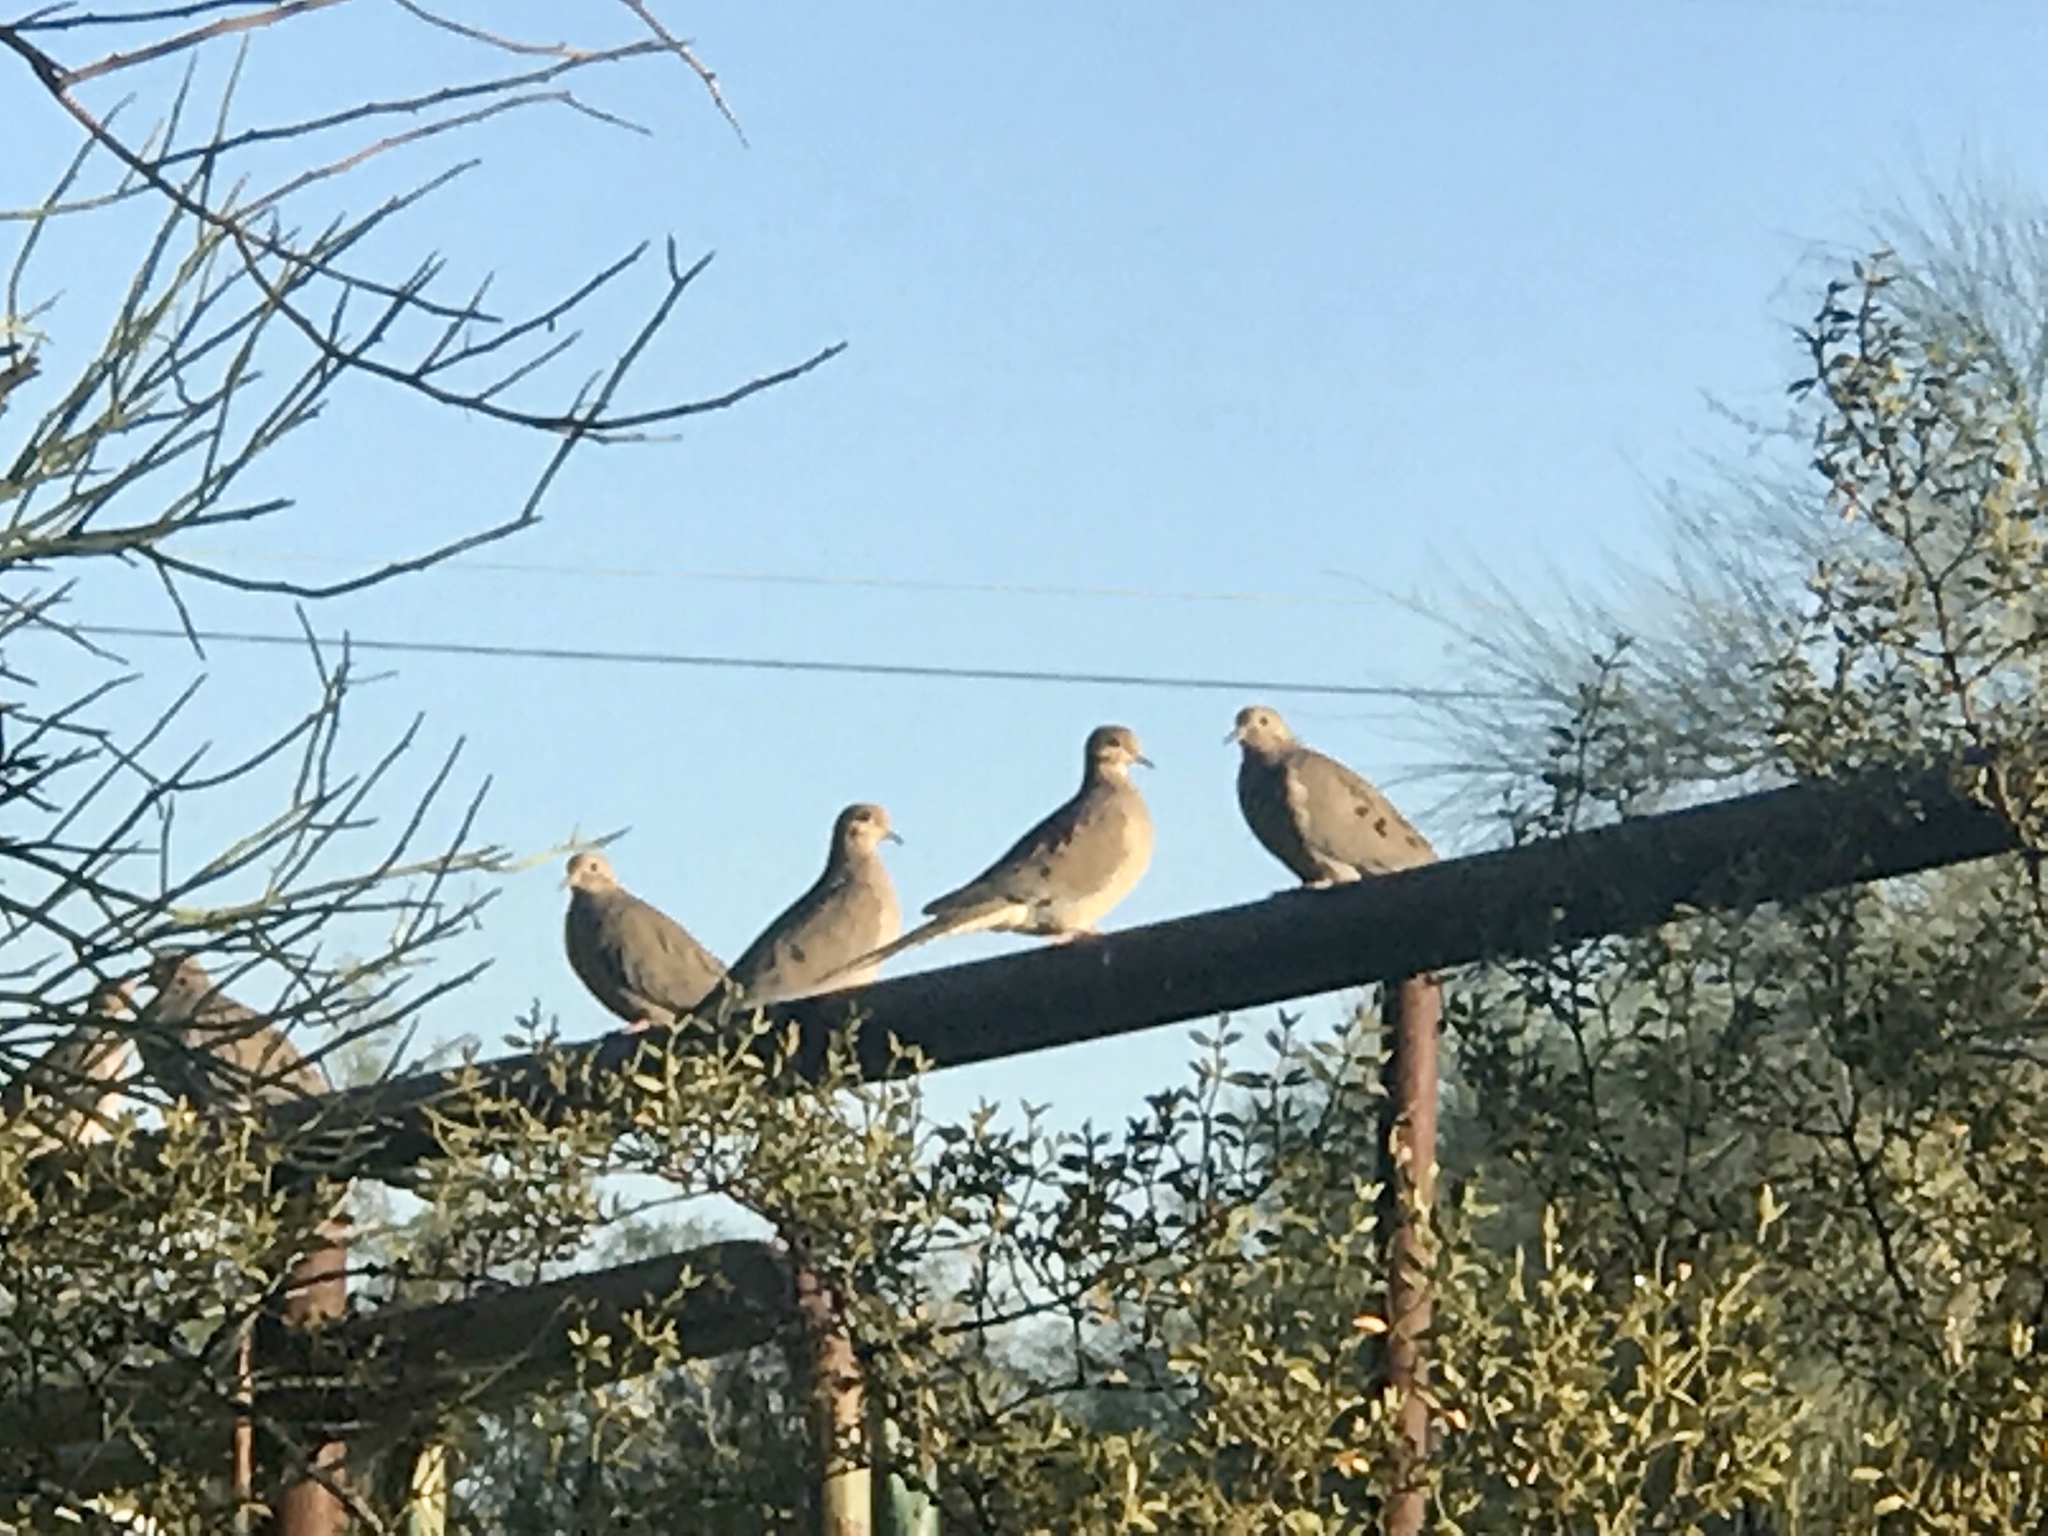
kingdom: Animalia
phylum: Chordata
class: Aves
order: Columbiformes
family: Columbidae
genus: Zenaida
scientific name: Zenaida macroura
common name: Mourning dove
